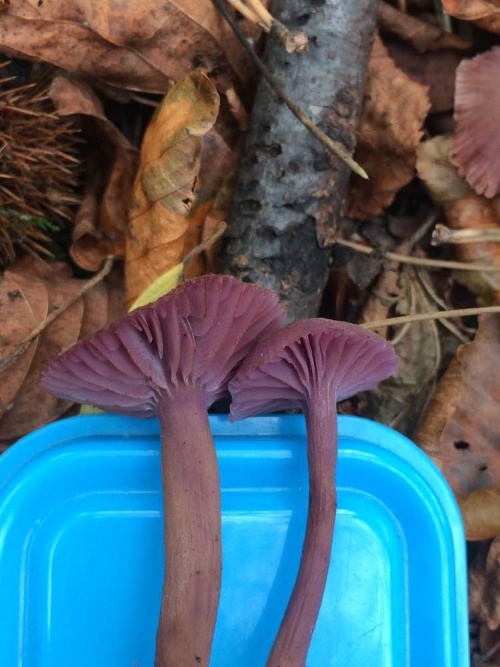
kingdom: Fungi
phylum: Basidiomycota
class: Agaricomycetes
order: Agaricales
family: Hydnangiaceae
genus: Laccaria
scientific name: Laccaria amethystina
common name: Amethyst deceiver
